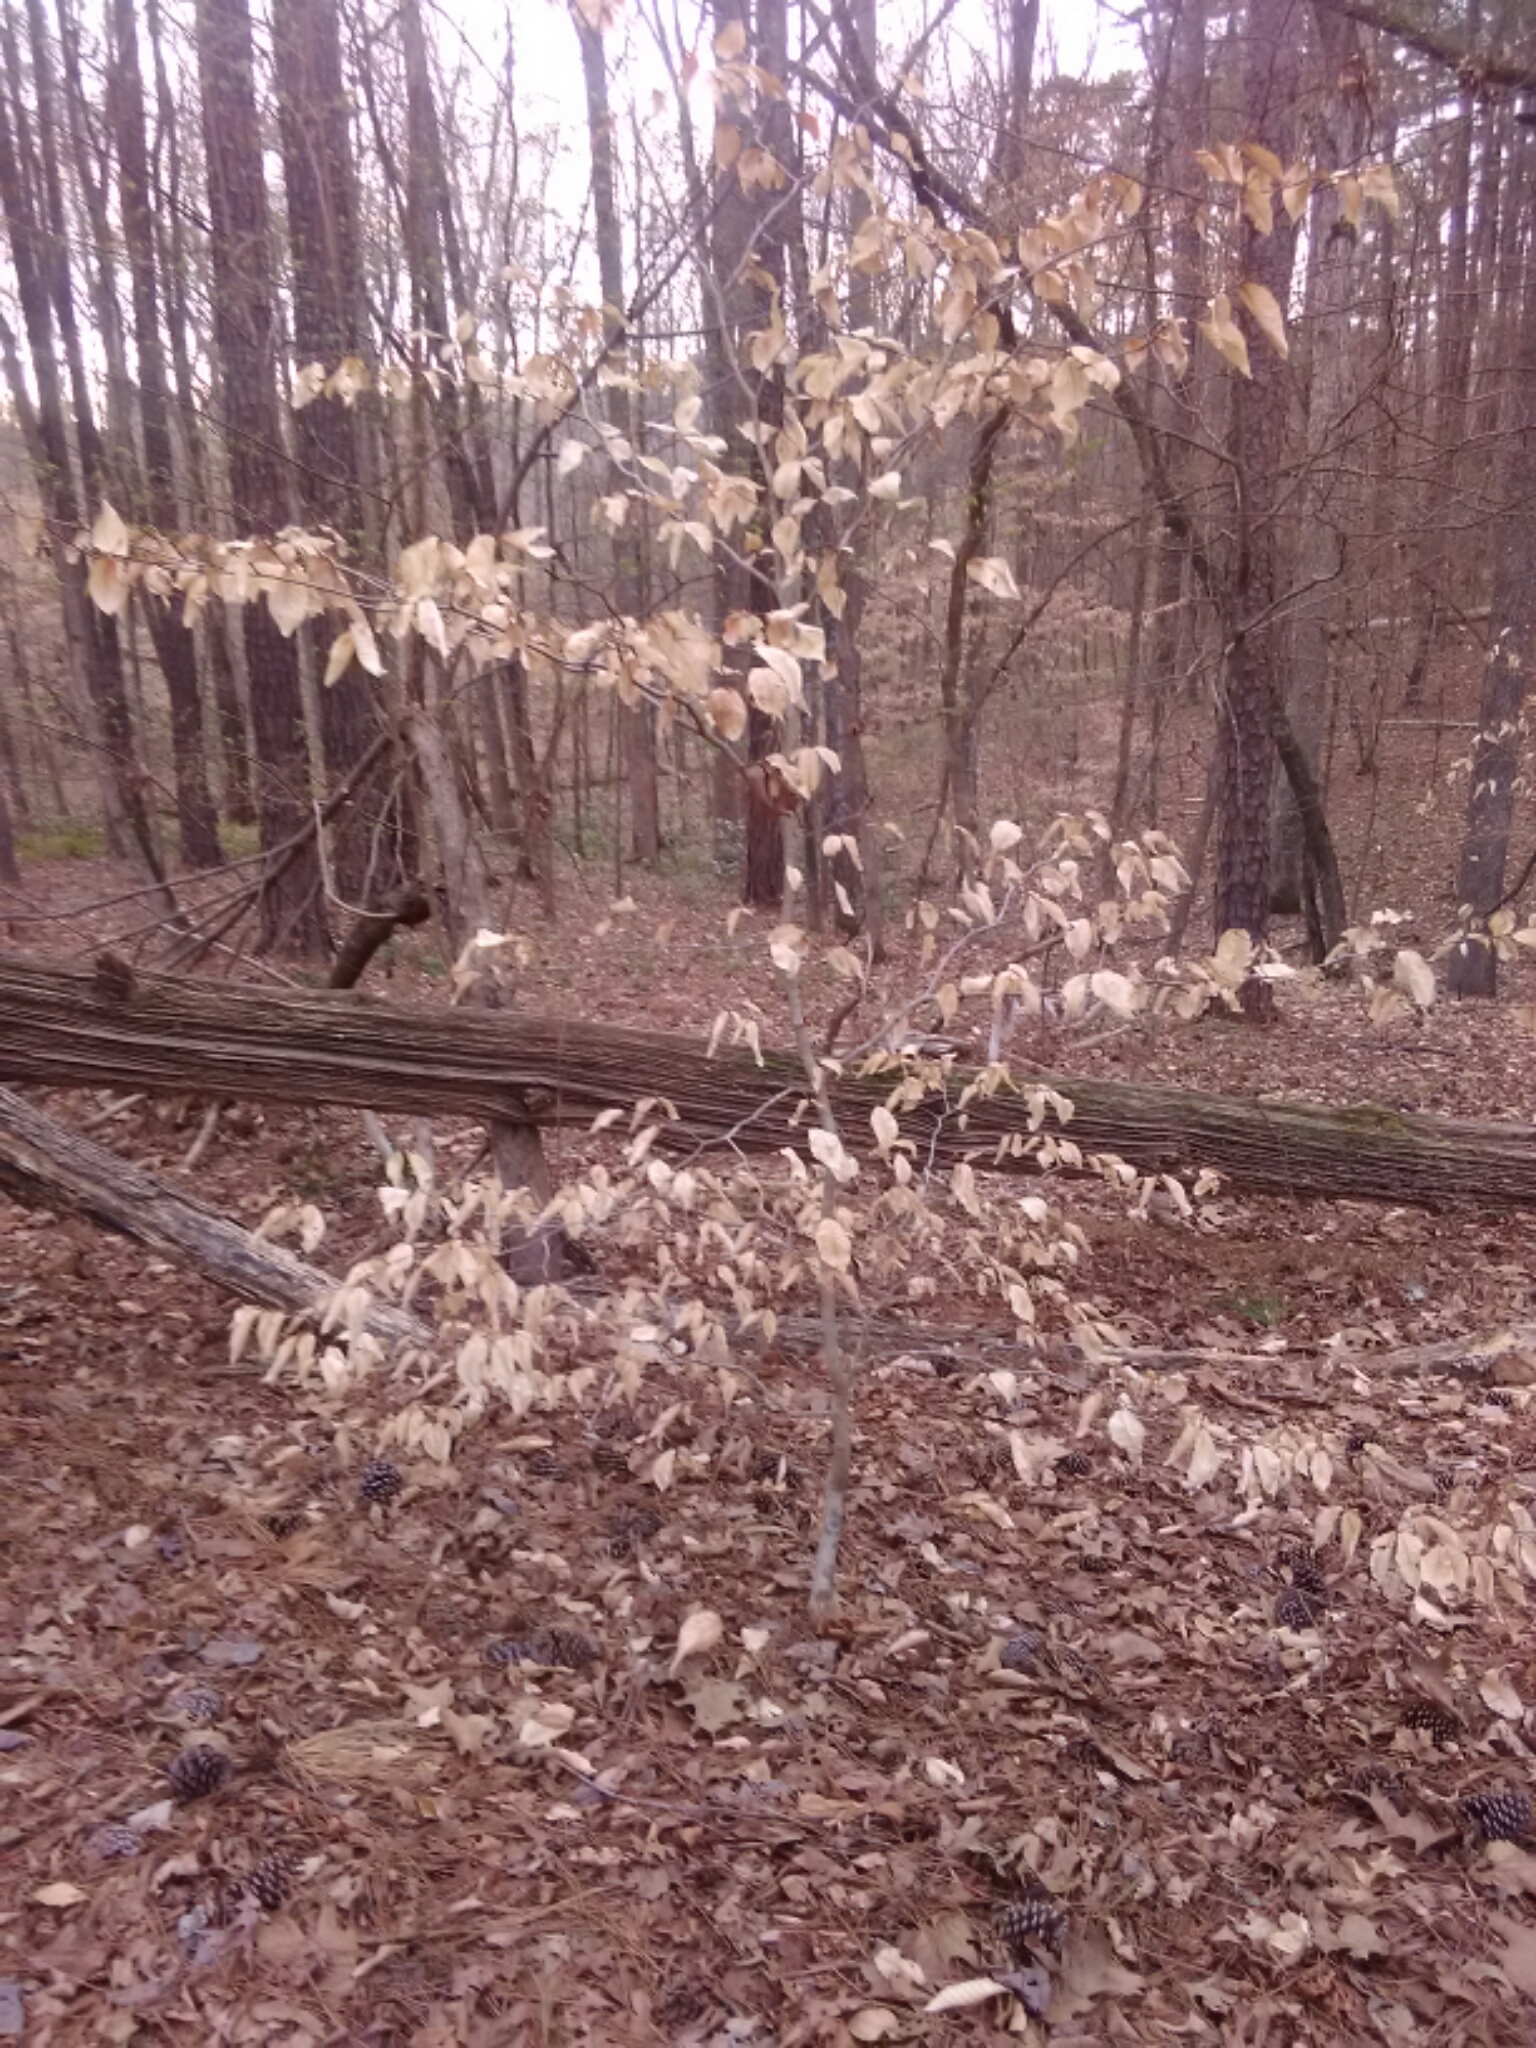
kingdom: Plantae
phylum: Tracheophyta
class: Magnoliopsida
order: Fagales
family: Fagaceae
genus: Fagus
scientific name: Fagus grandifolia
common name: American beech
